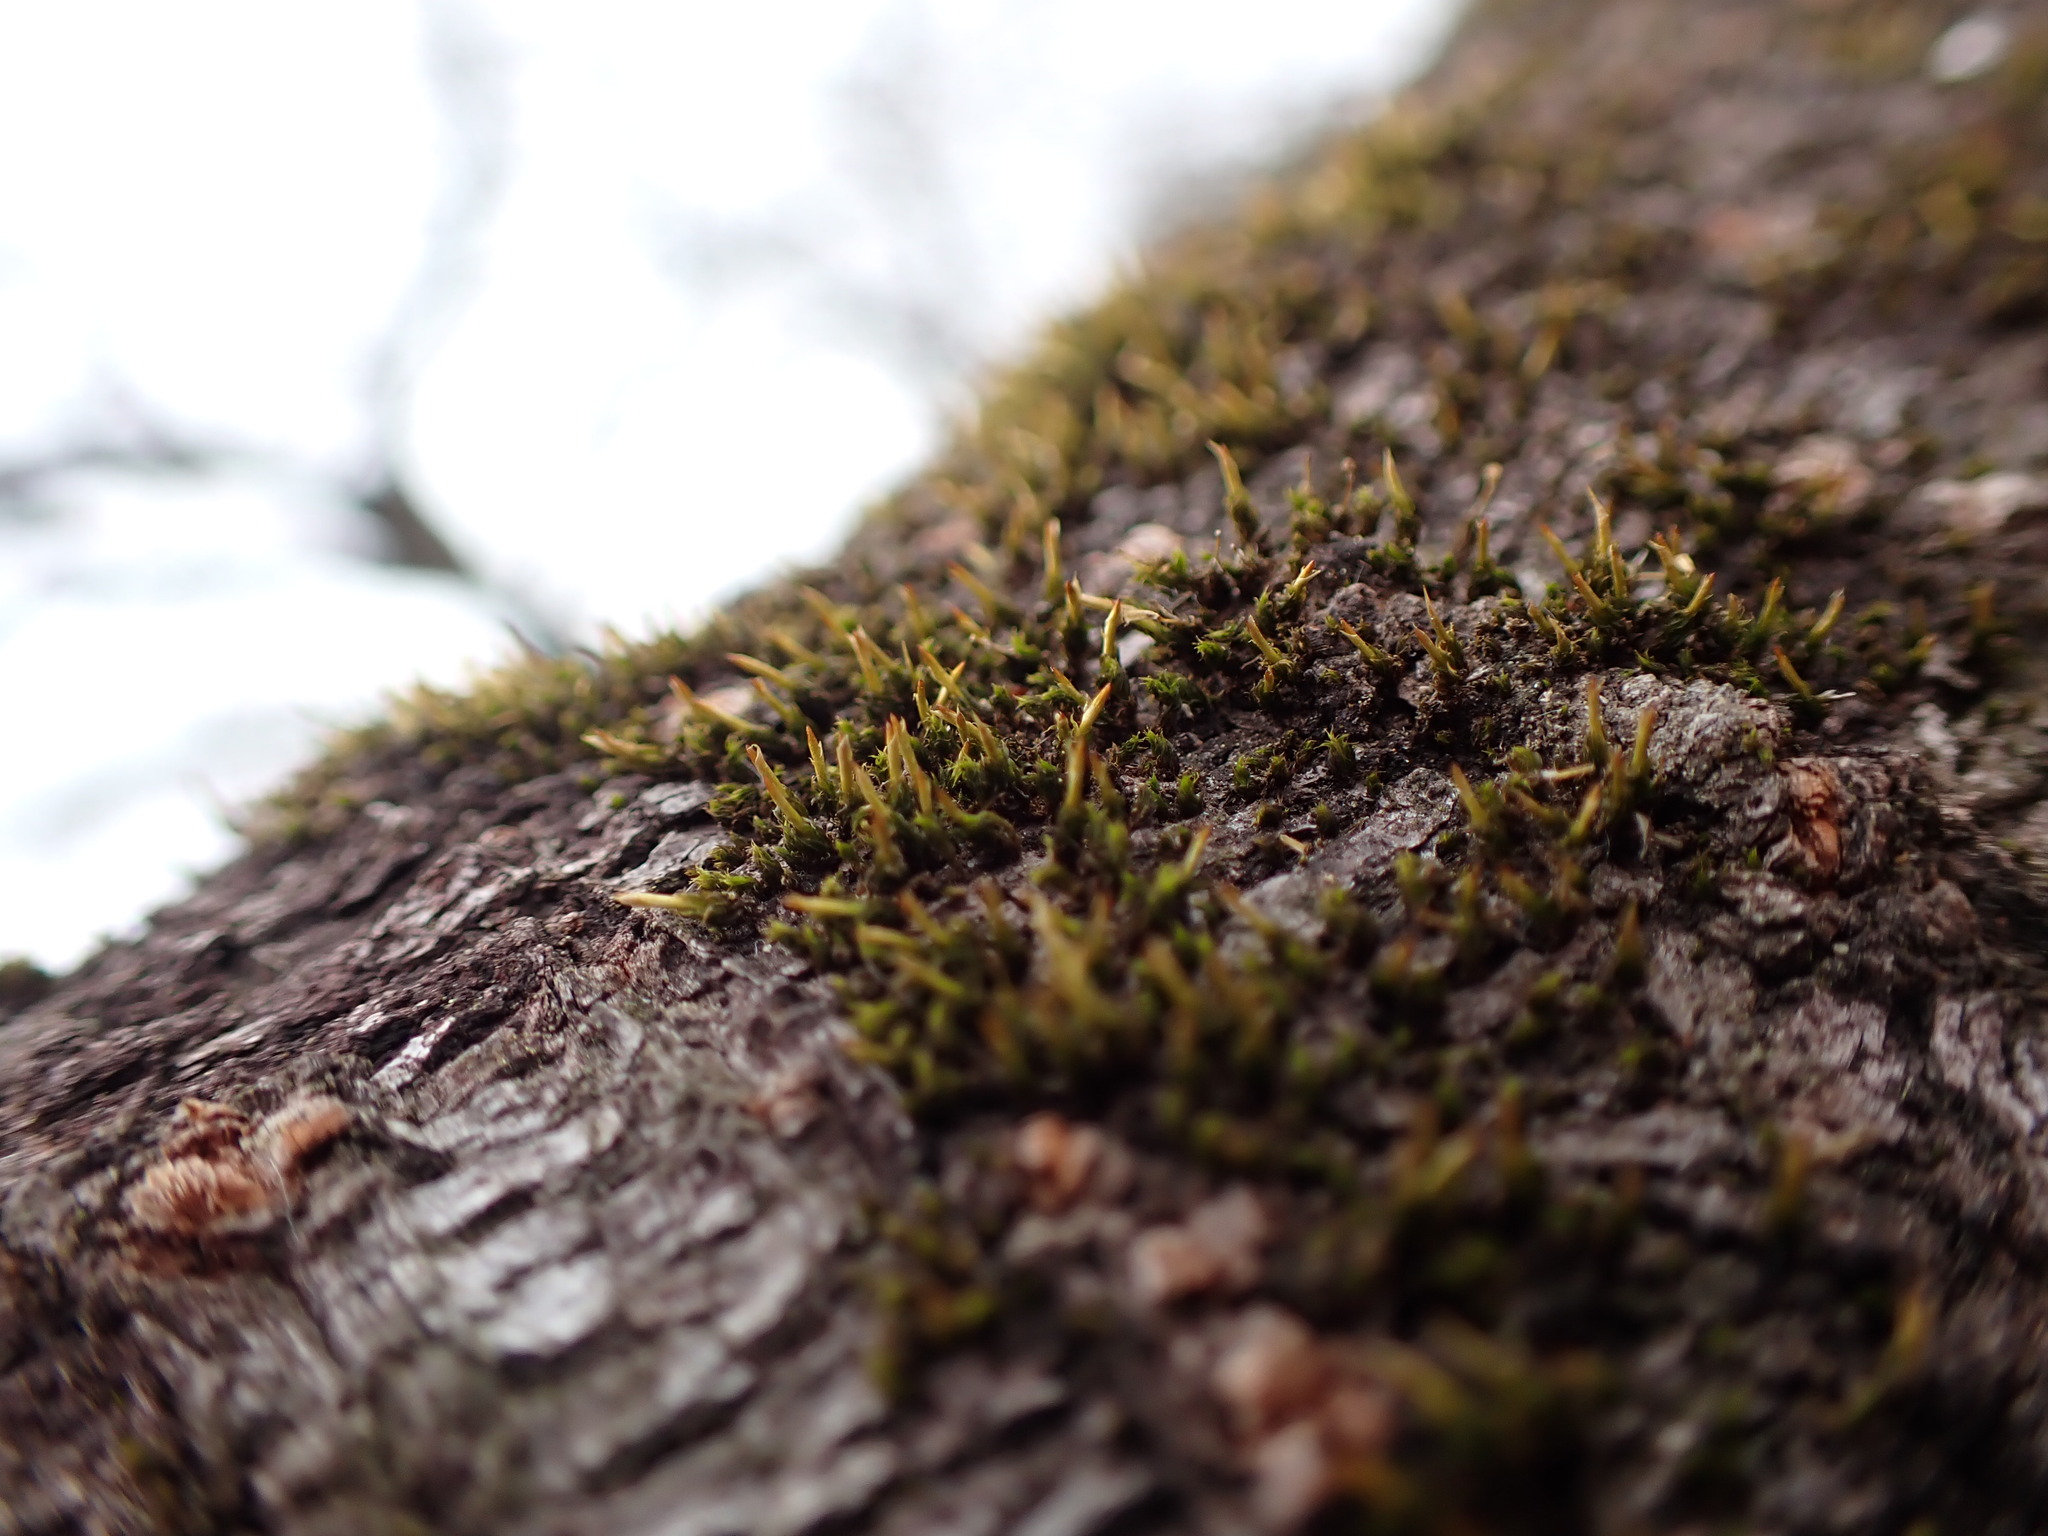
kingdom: Plantae
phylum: Bryophyta
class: Bryopsida
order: Dicranales
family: Rhabdoweisiaceae
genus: Glyphomitrium
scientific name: Glyphomitrium humillimum
